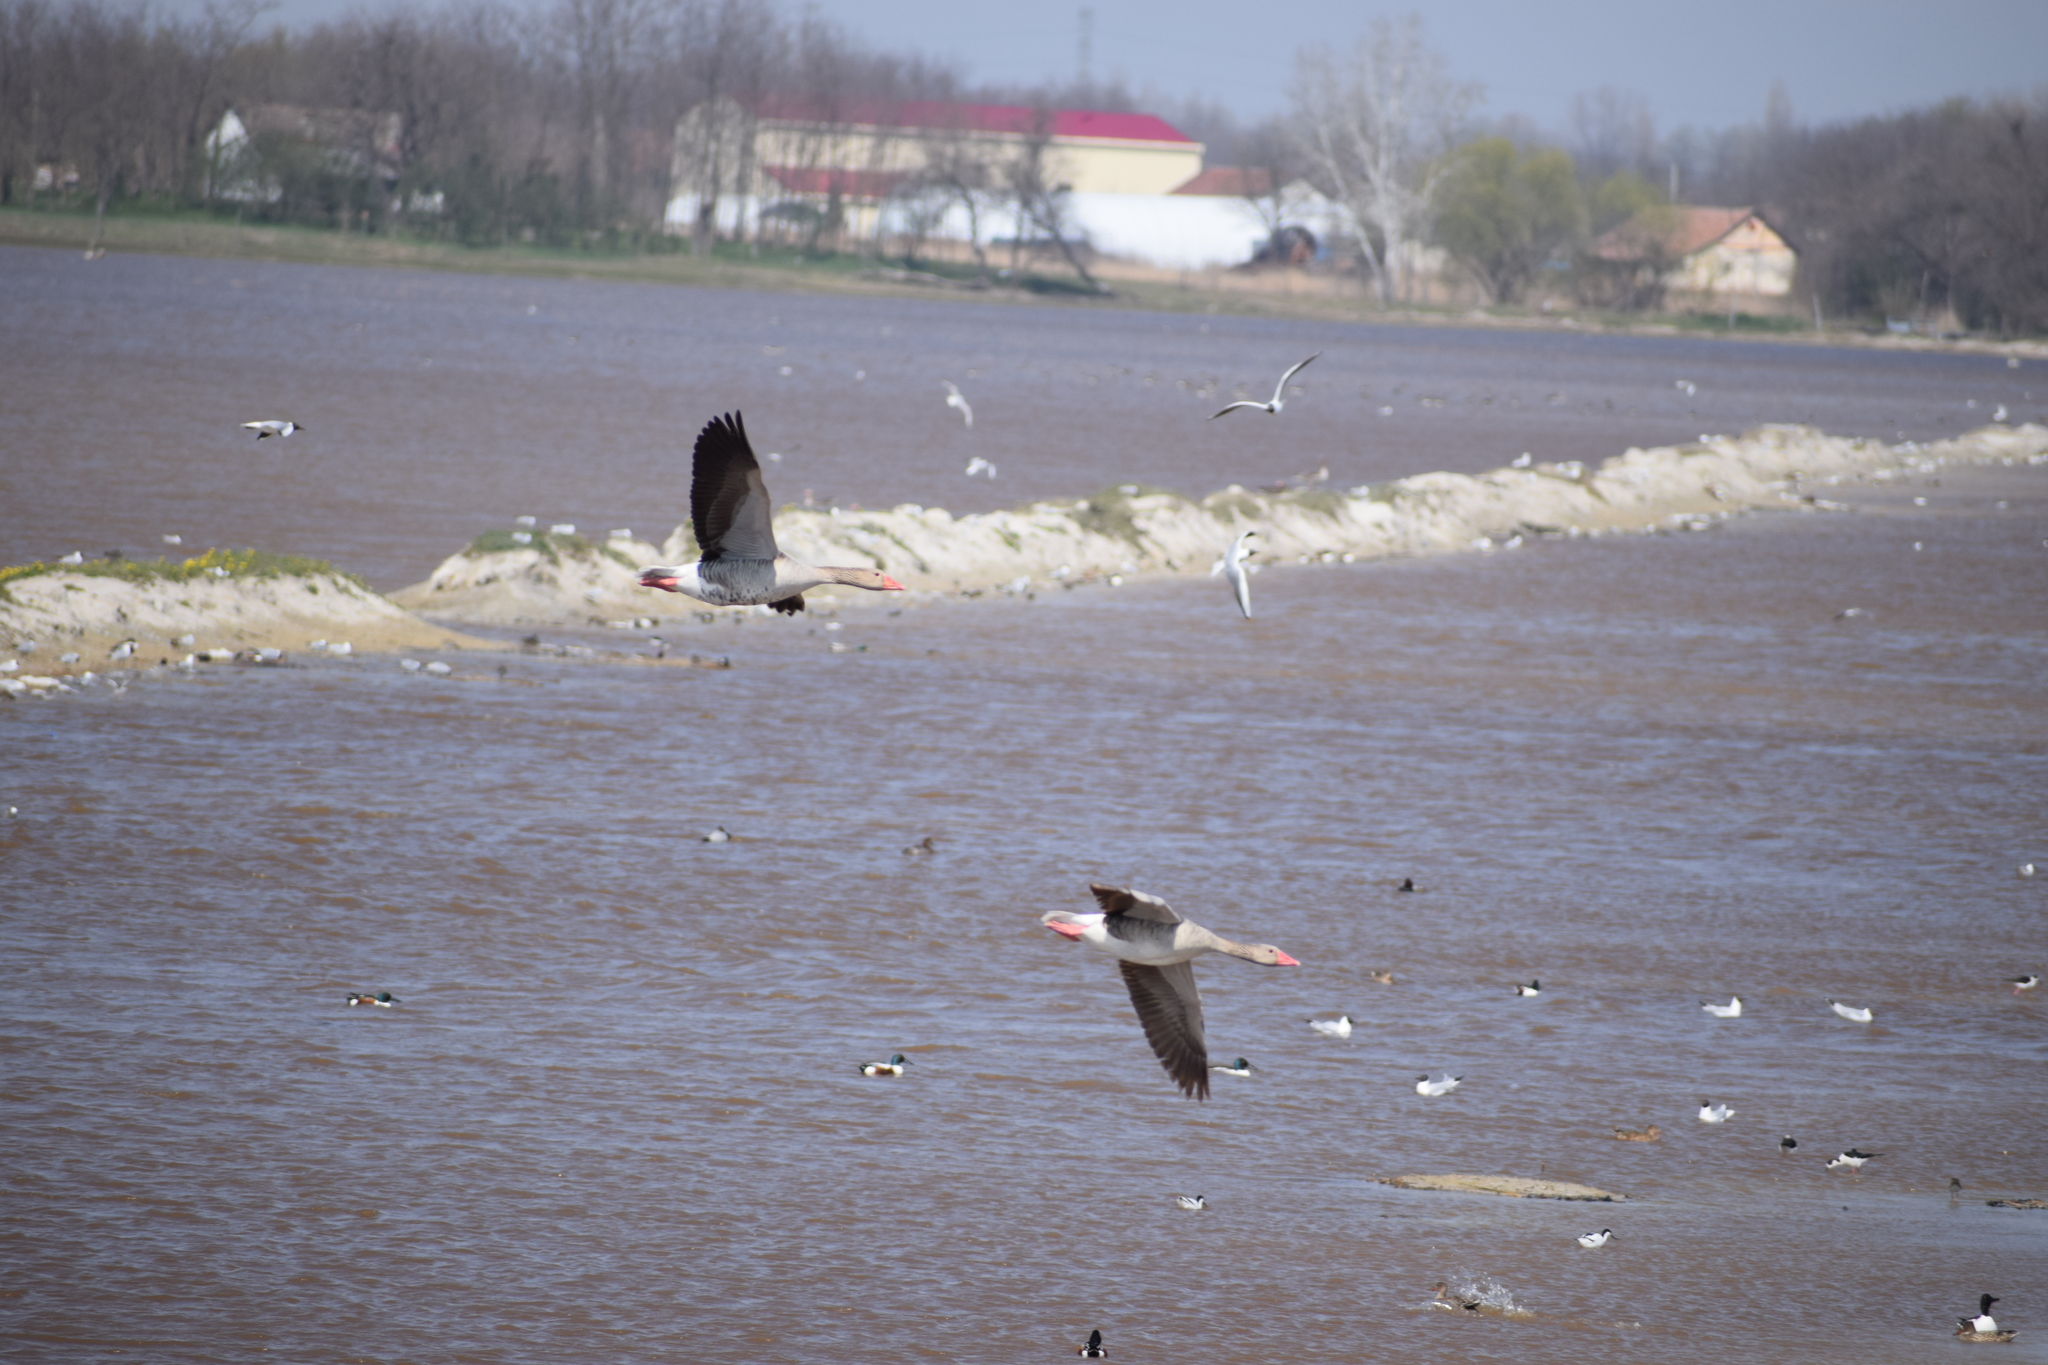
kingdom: Animalia
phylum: Chordata
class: Aves
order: Anseriformes
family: Anatidae
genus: Anser
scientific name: Anser anser
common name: Greylag goose
